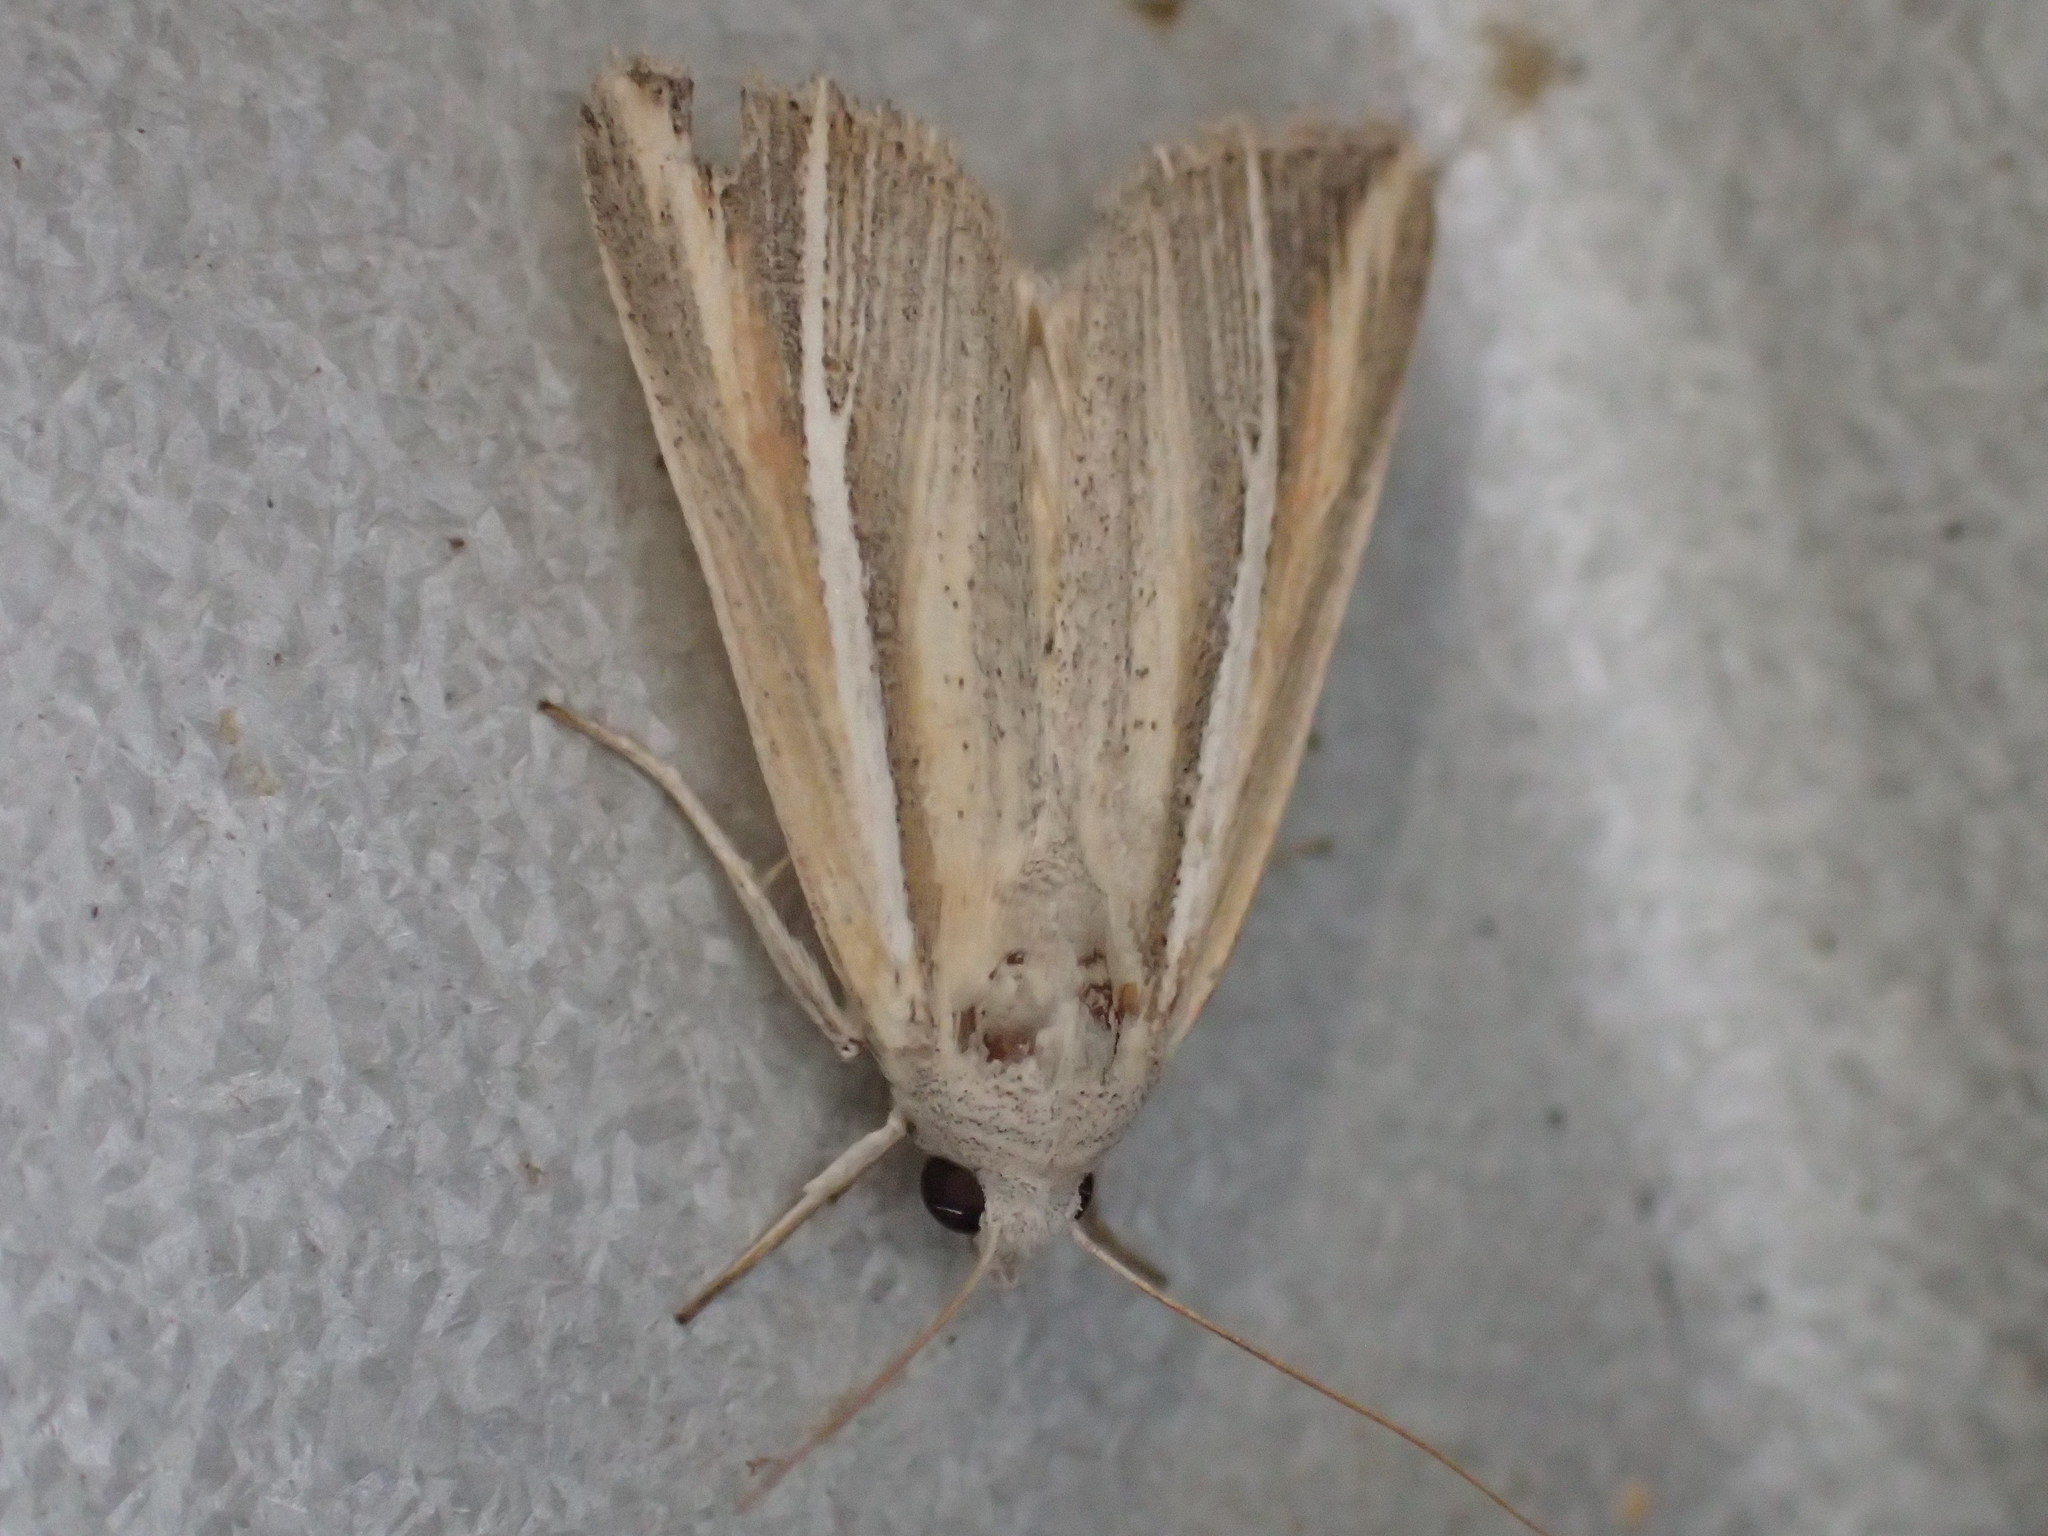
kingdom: Animalia
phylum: Arthropoda
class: Insecta
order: Lepidoptera
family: Noctuidae
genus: Leucania
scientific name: Leucania cruegeri
